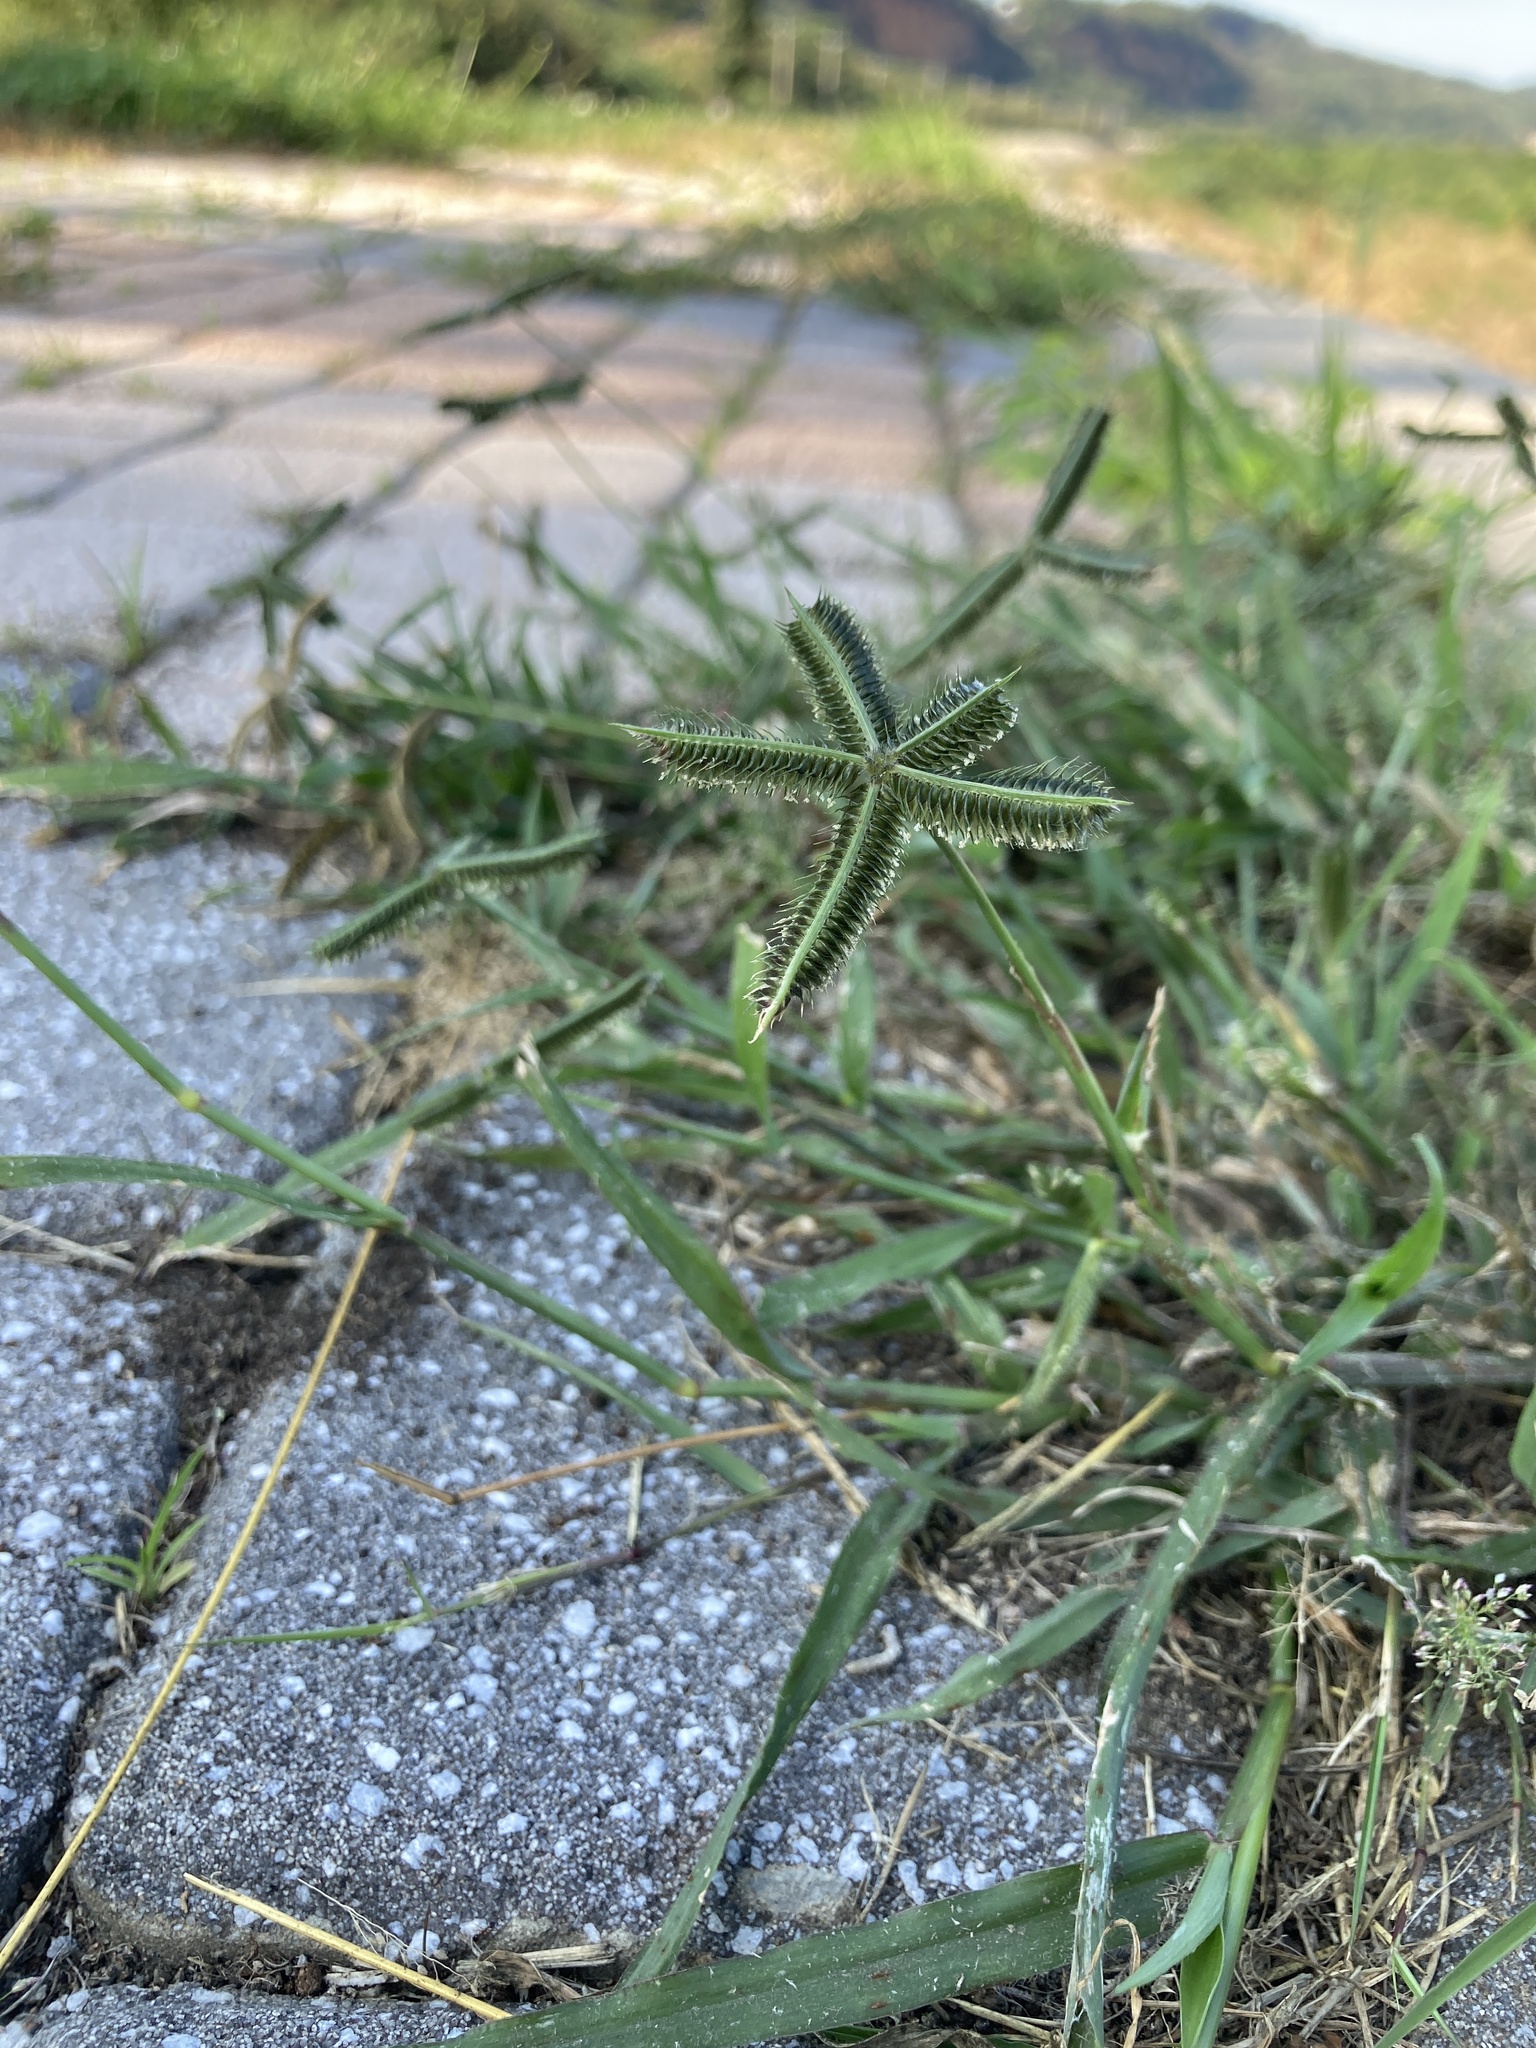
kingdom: Plantae
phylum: Tracheophyta
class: Liliopsida
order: Poales
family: Poaceae
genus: Dactyloctenium
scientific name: Dactyloctenium aegyptium
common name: Egyptian grass
